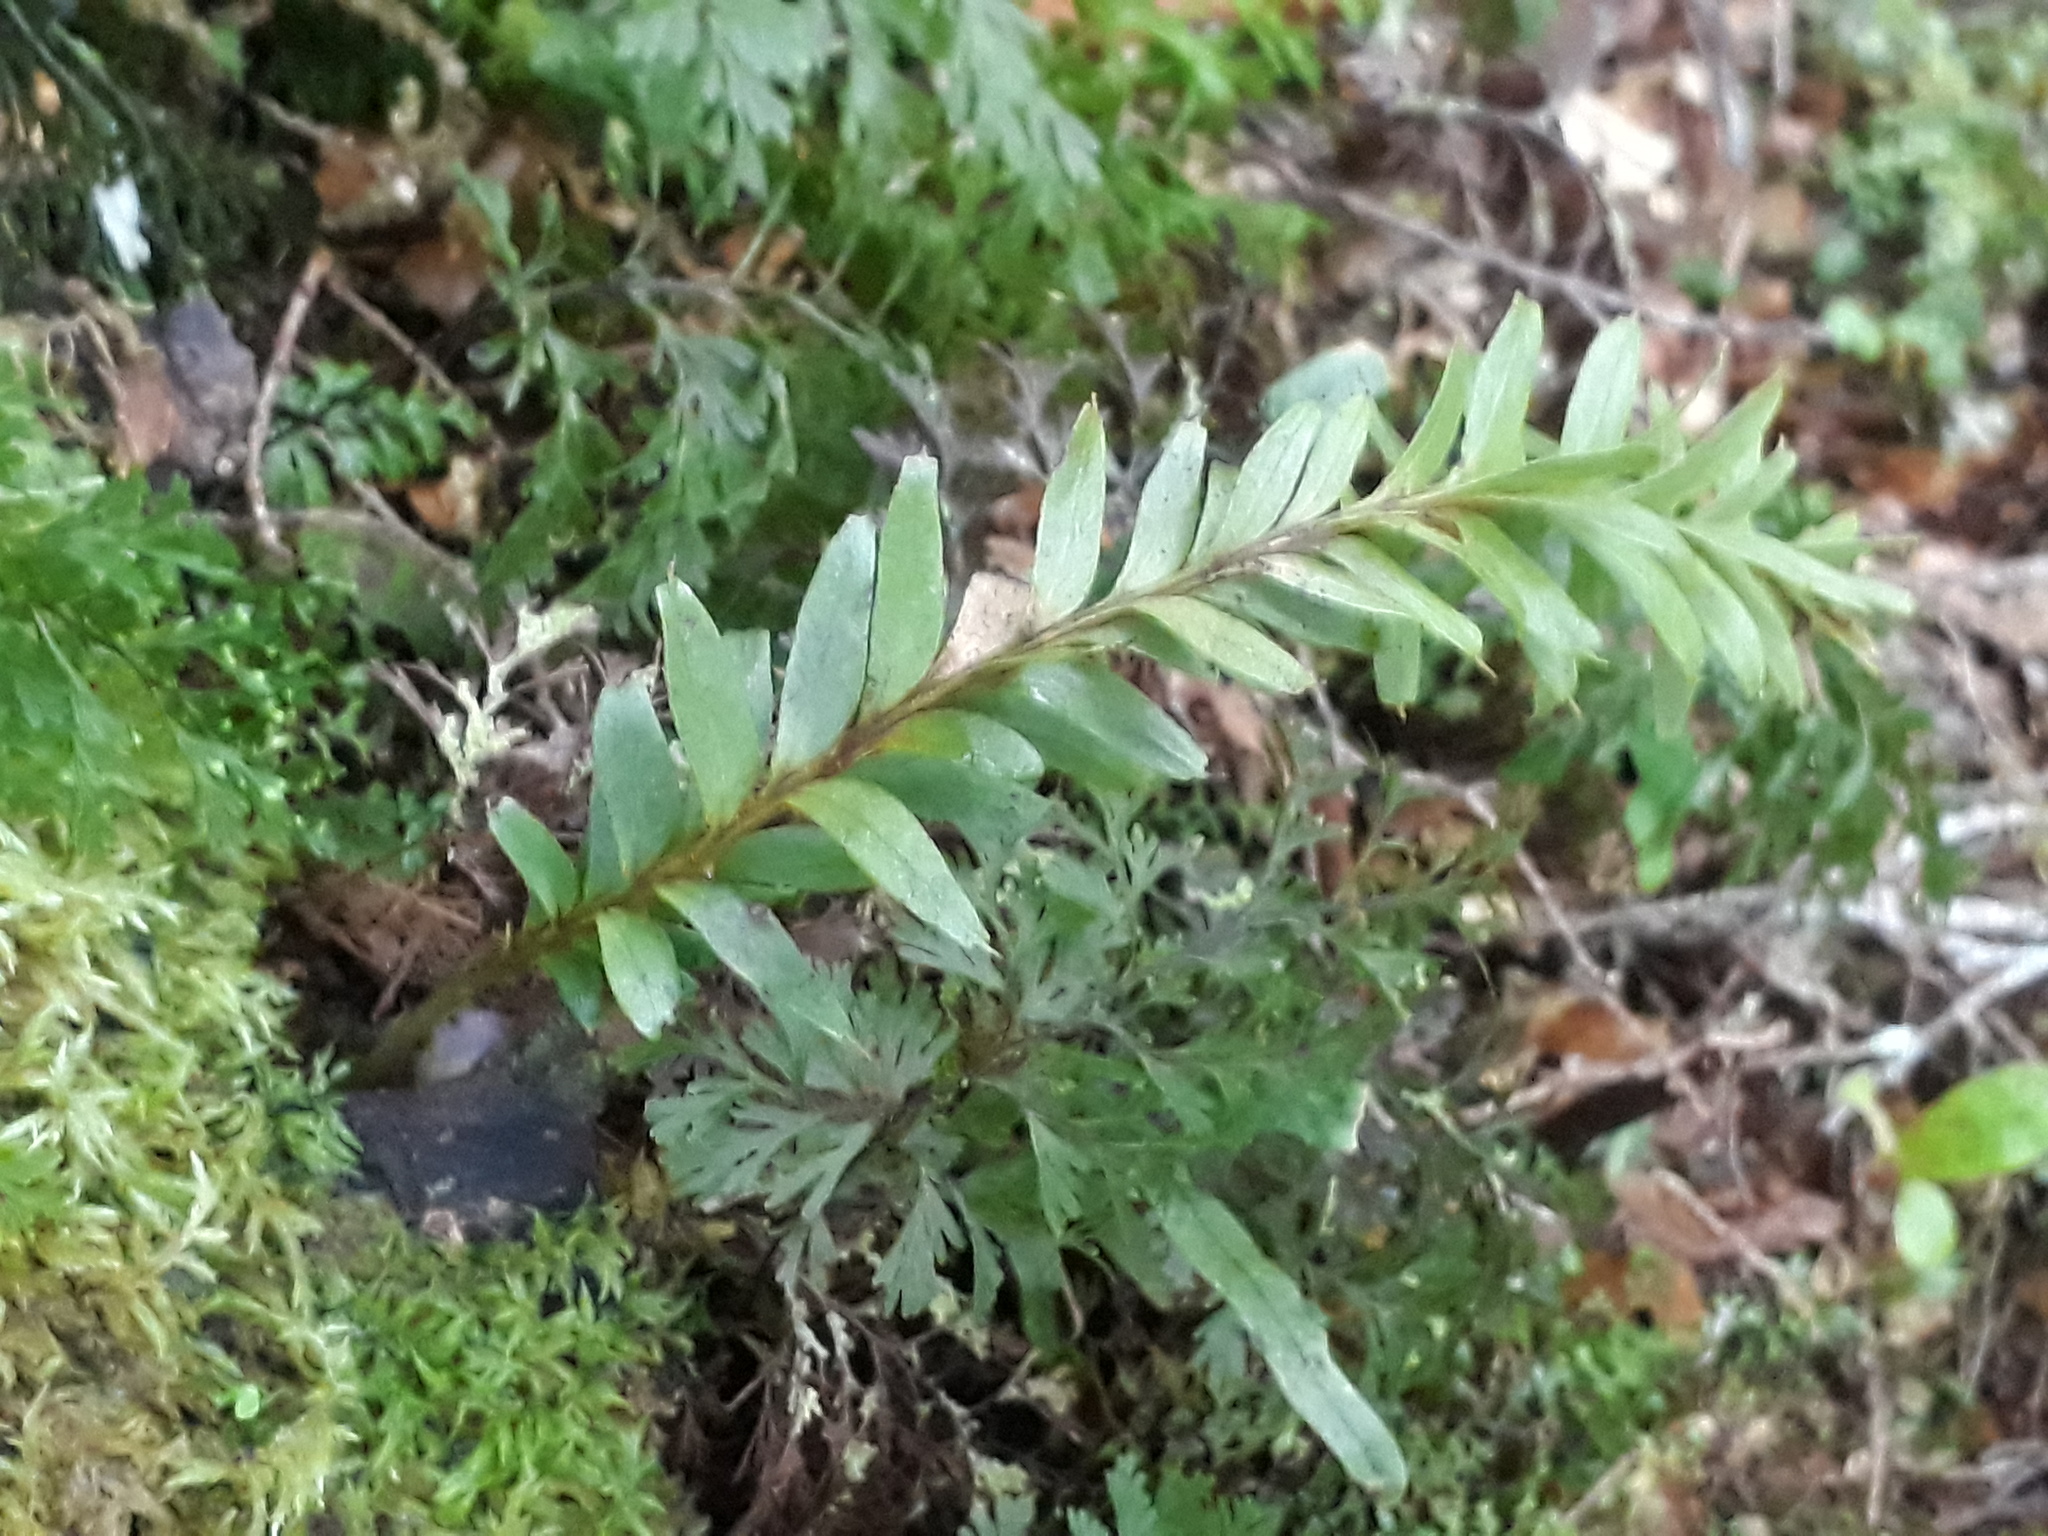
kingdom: Plantae
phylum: Tracheophyta
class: Polypodiopsida
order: Psilotales
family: Psilotaceae
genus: Tmesipteris
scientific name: Tmesipteris tannensis
